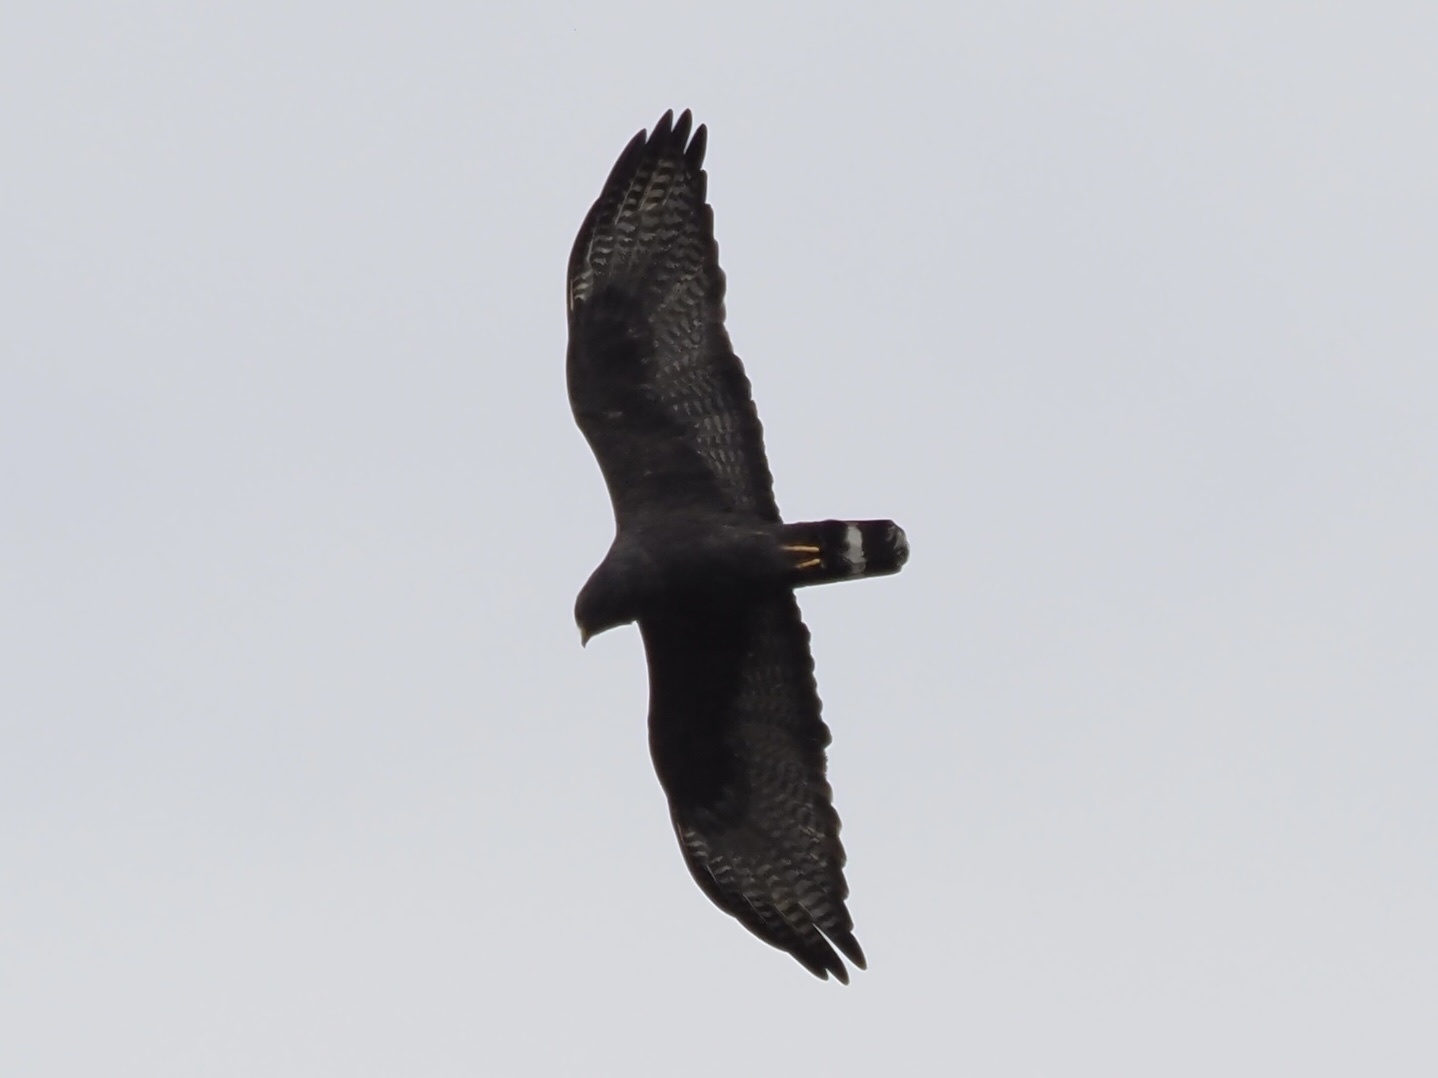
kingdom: Animalia
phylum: Chordata
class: Aves
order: Accipitriformes
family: Accipitridae
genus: Buteo
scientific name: Buteo albonotatus
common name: Zone-tailed hawk
